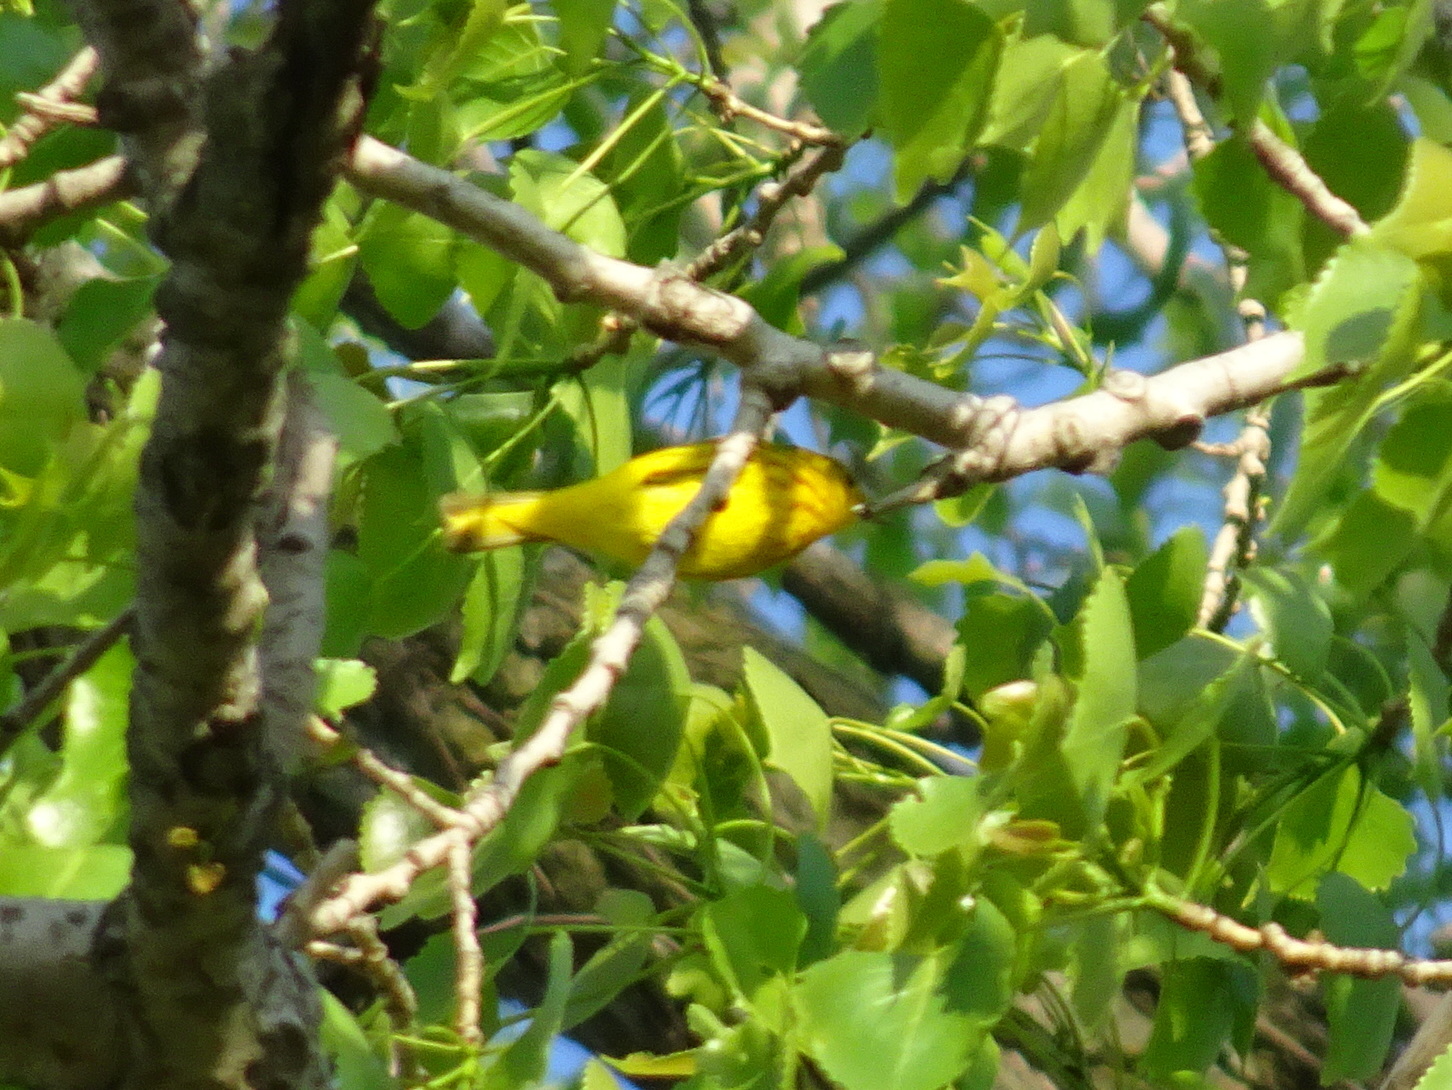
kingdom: Animalia
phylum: Chordata
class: Aves
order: Passeriformes
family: Parulidae
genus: Setophaga
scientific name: Setophaga petechia
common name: Yellow warbler
